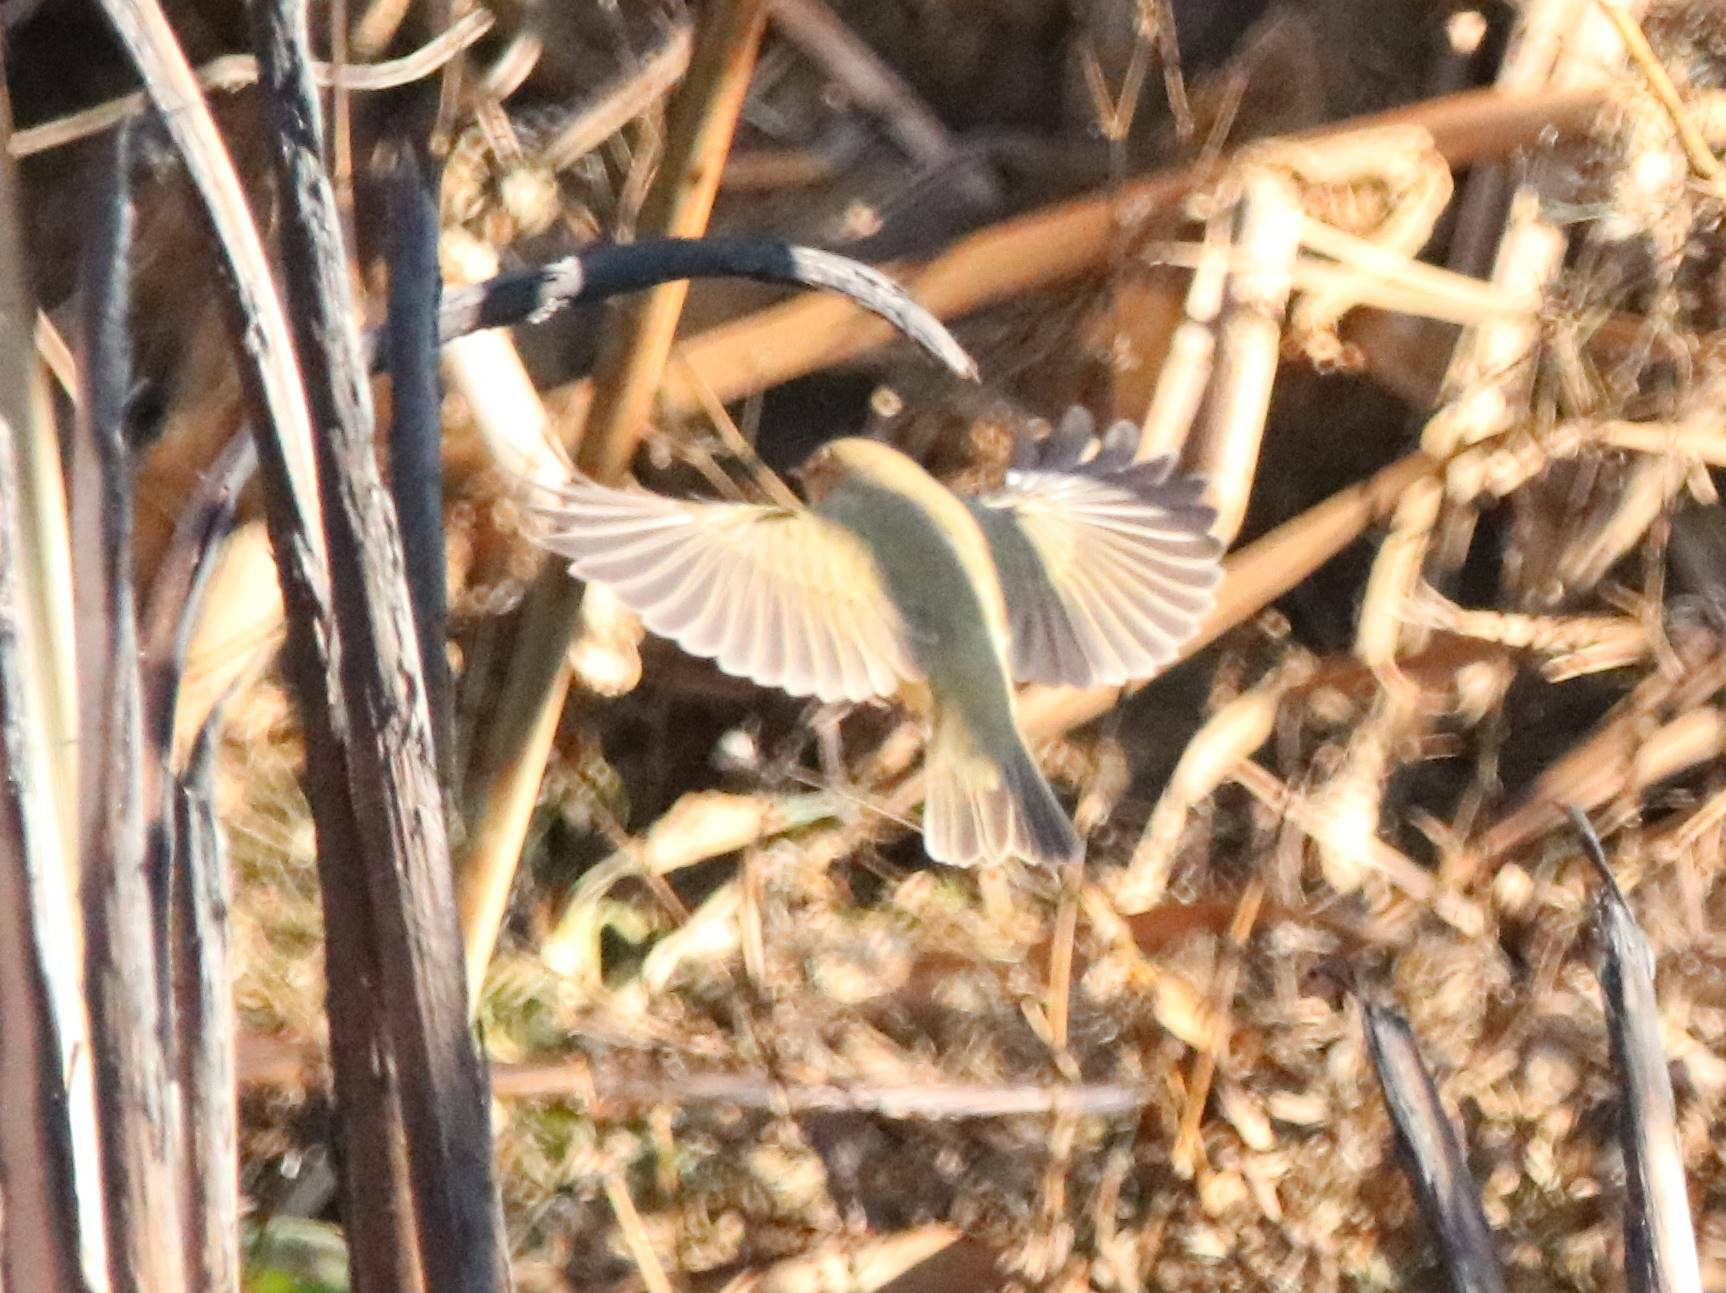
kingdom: Animalia
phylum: Chordata
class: Aves
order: Passeriformes
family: Phylloscopidae
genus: Phylloscopus
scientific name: Phylloscopus collybita
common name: Common chiffchaff
